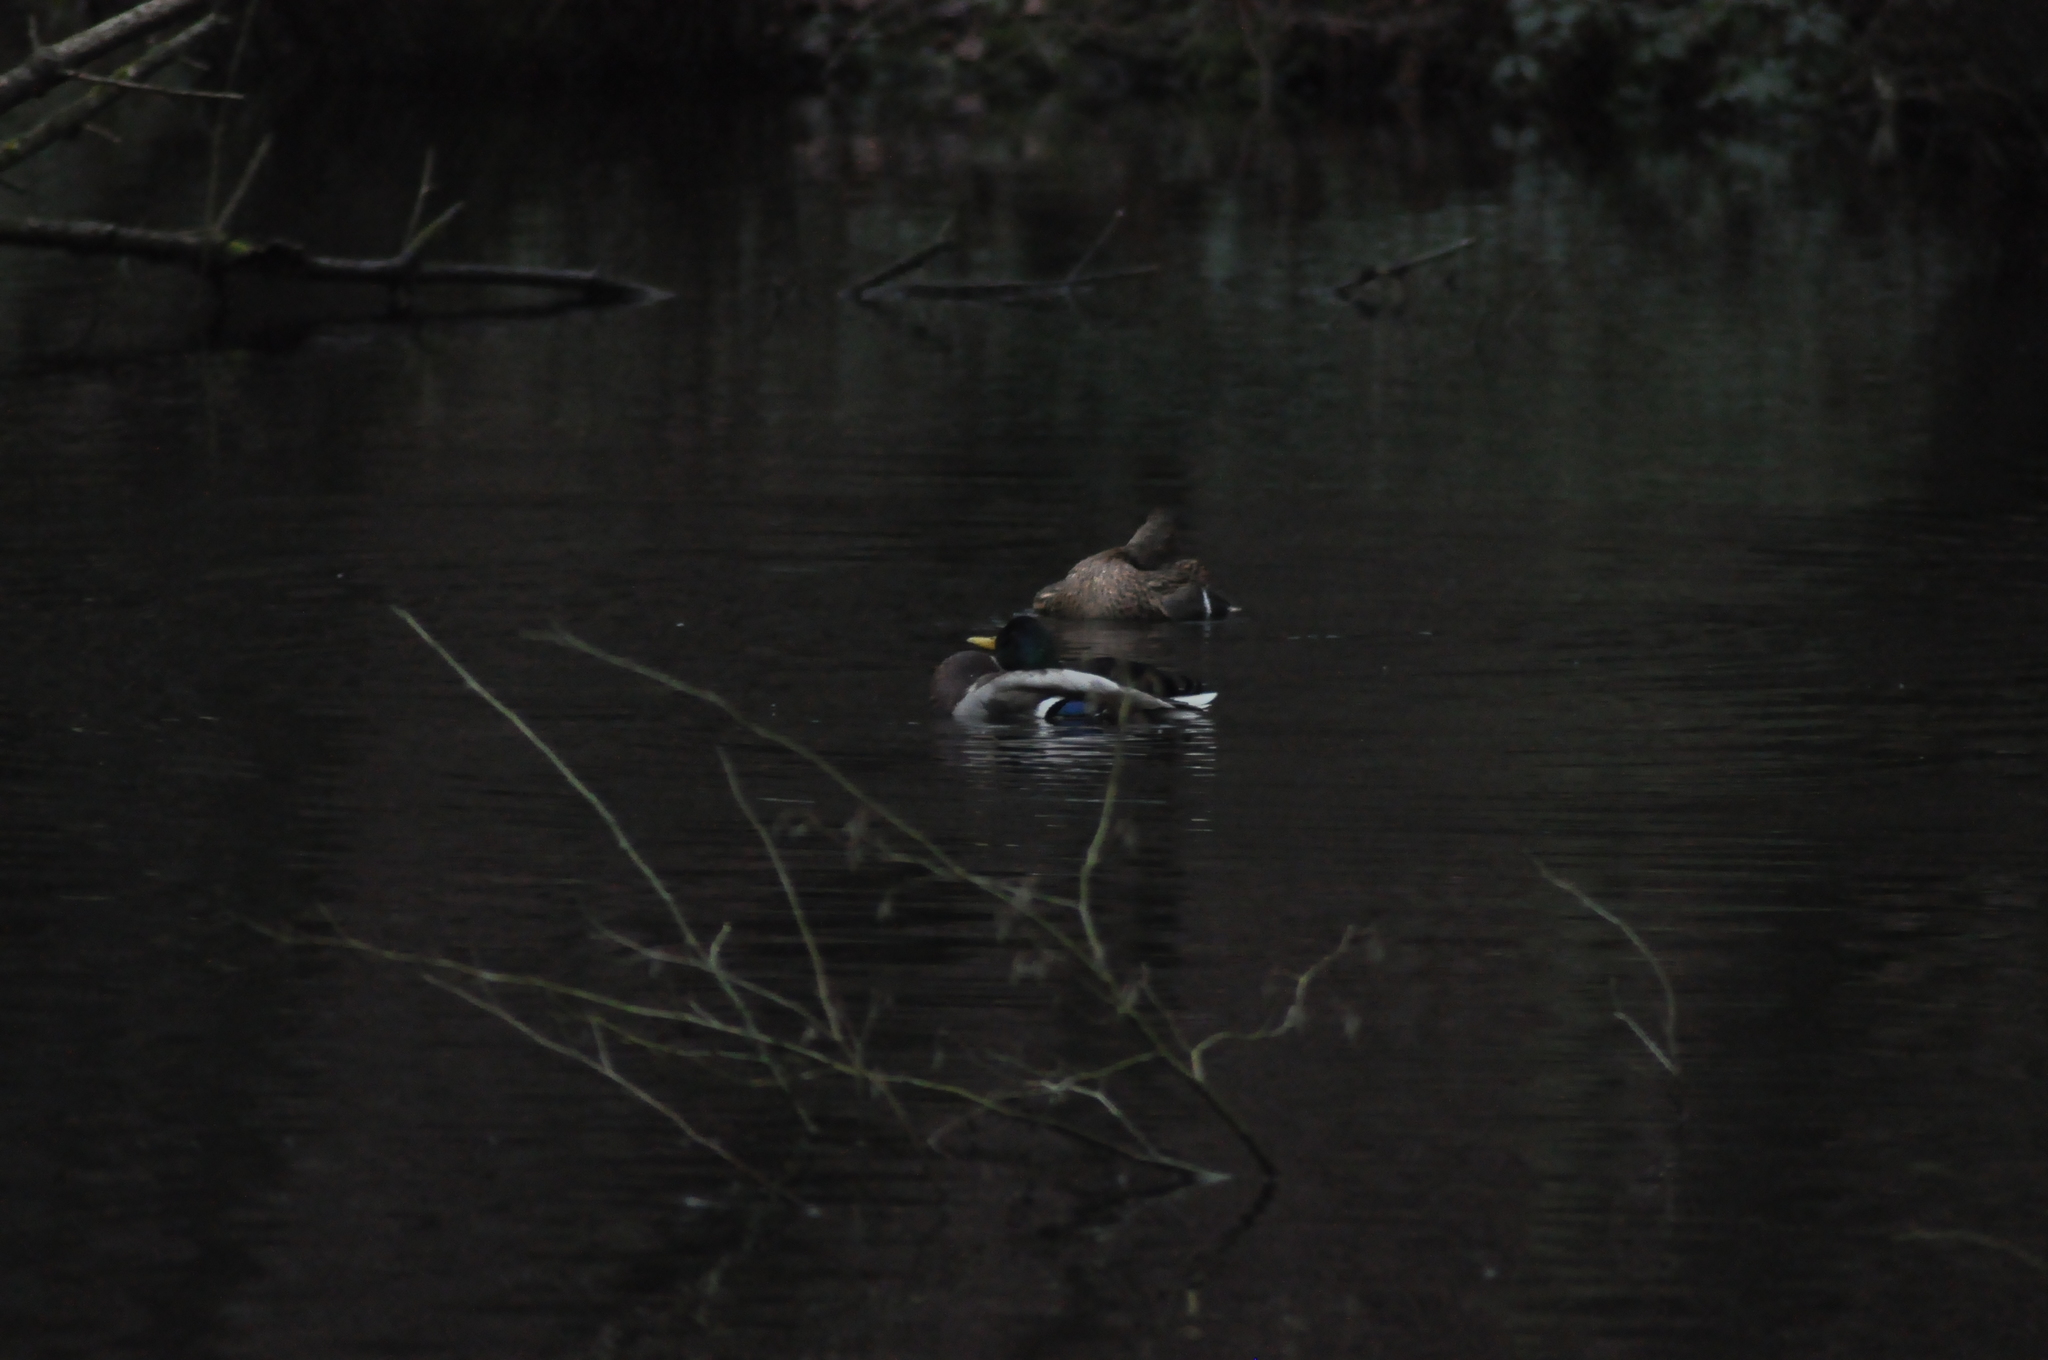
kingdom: Animalia
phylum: Chordata
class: Aves
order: Anseriformes
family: Anatidae
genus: Anas
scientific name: Anas platyrhynchos
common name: Mallard
